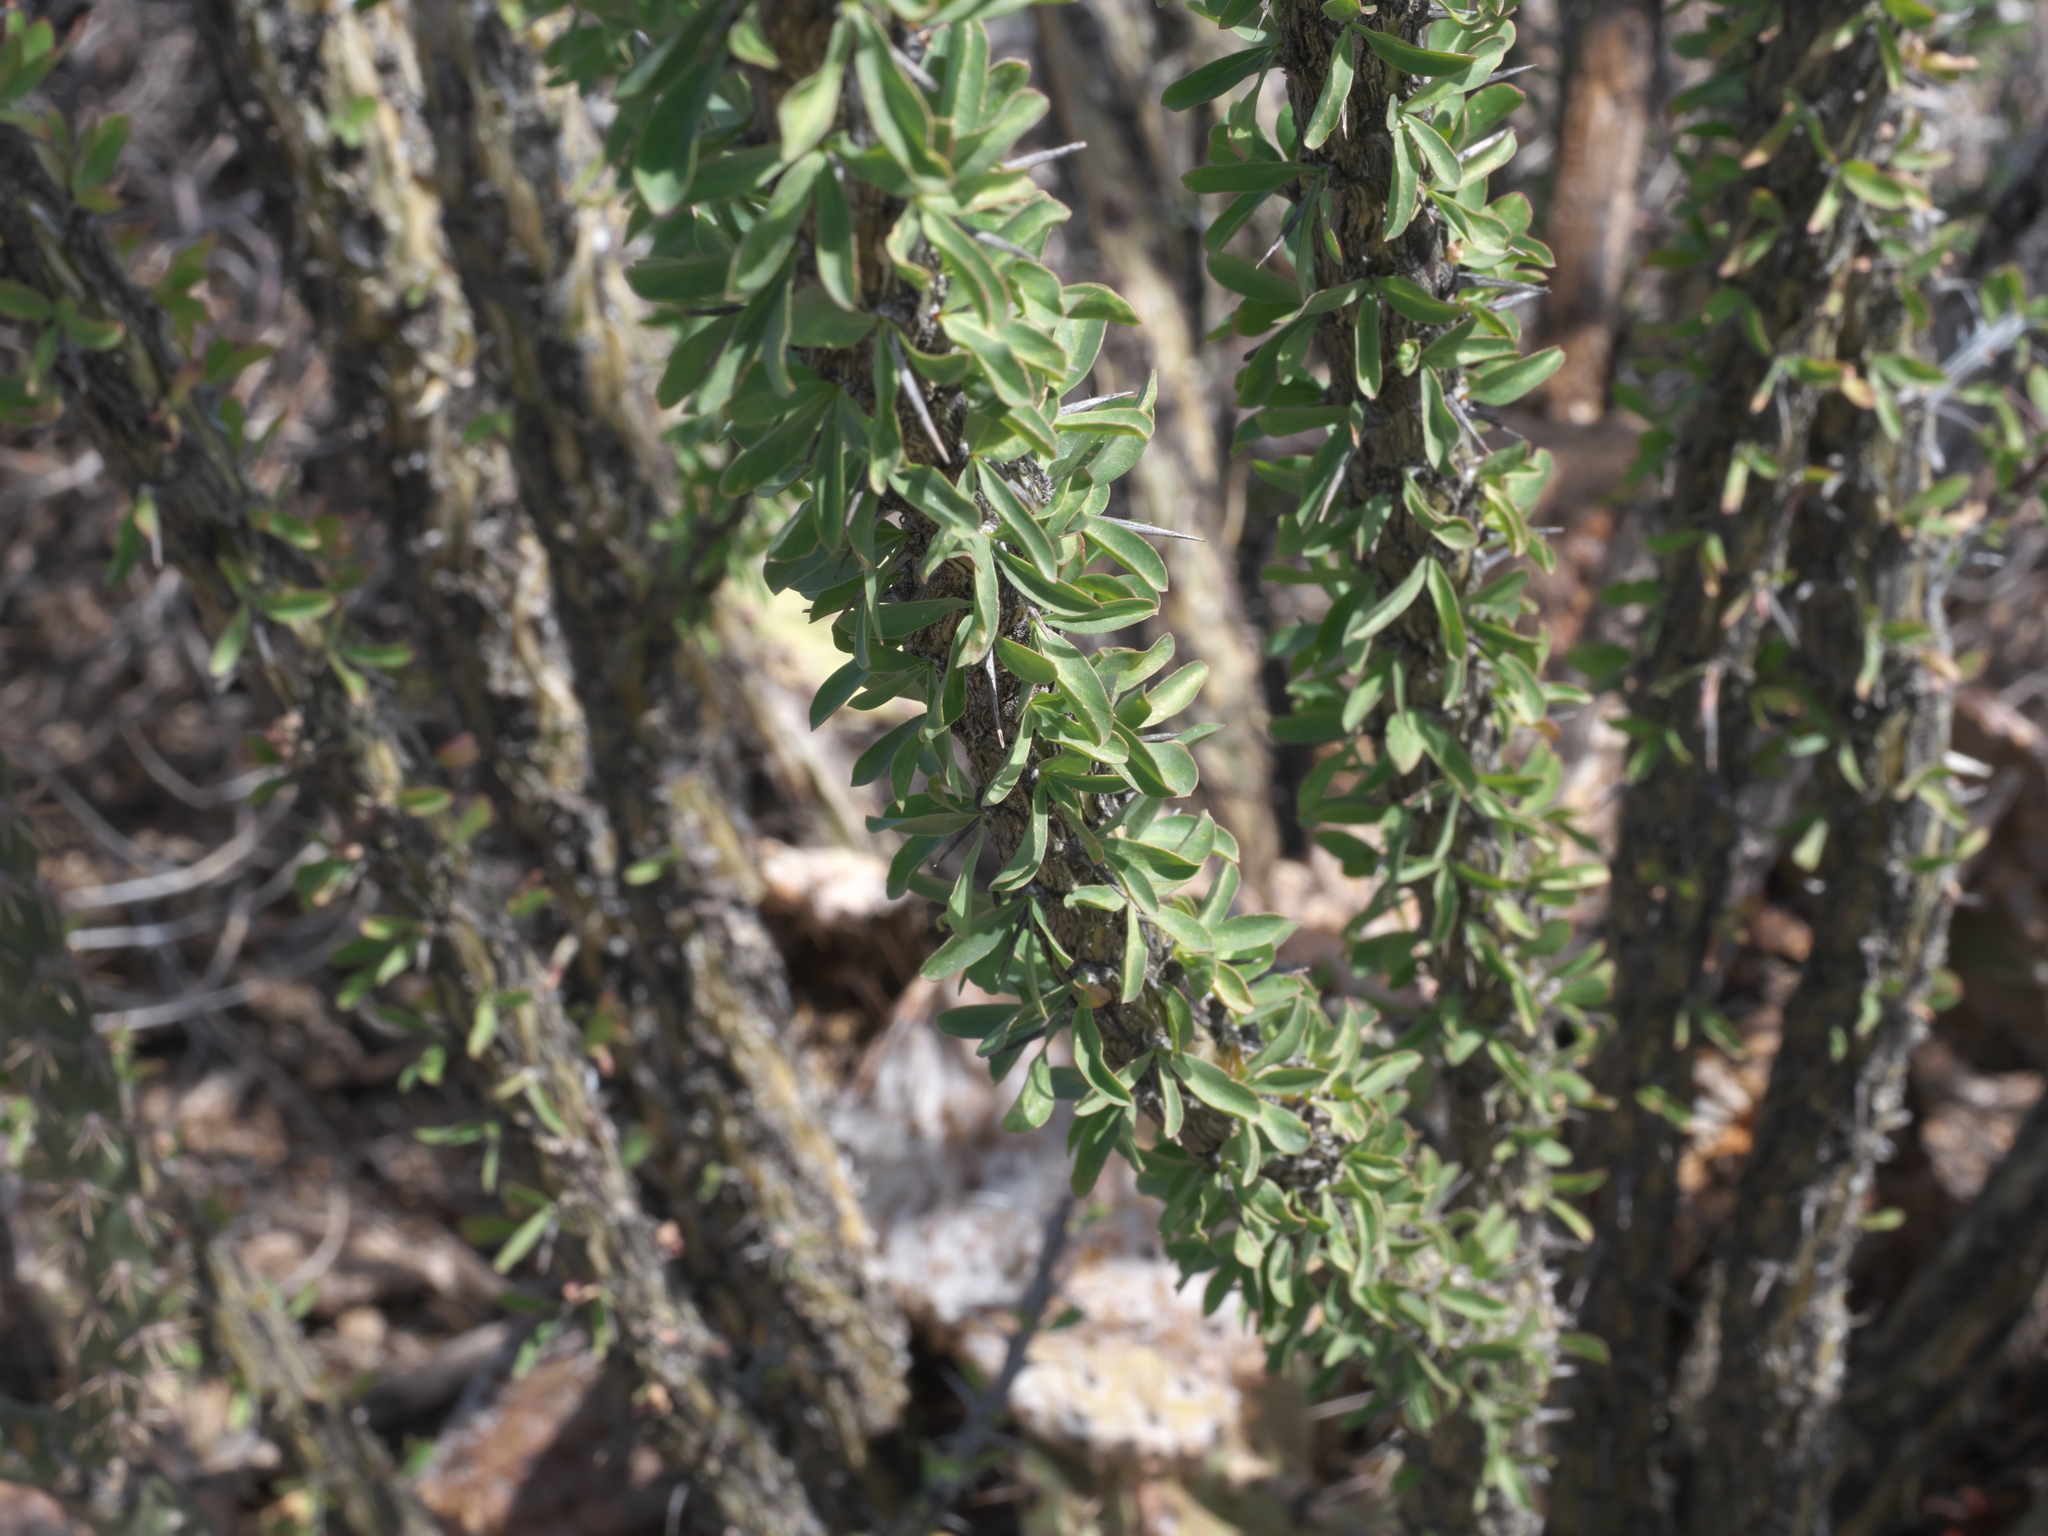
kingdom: Plantae
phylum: Tracheophyta
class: Magnoliopsida
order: Ericales
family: Fouquieriaceae
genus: Fouquieria
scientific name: Fouquieria splendens
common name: Vine-cactus
